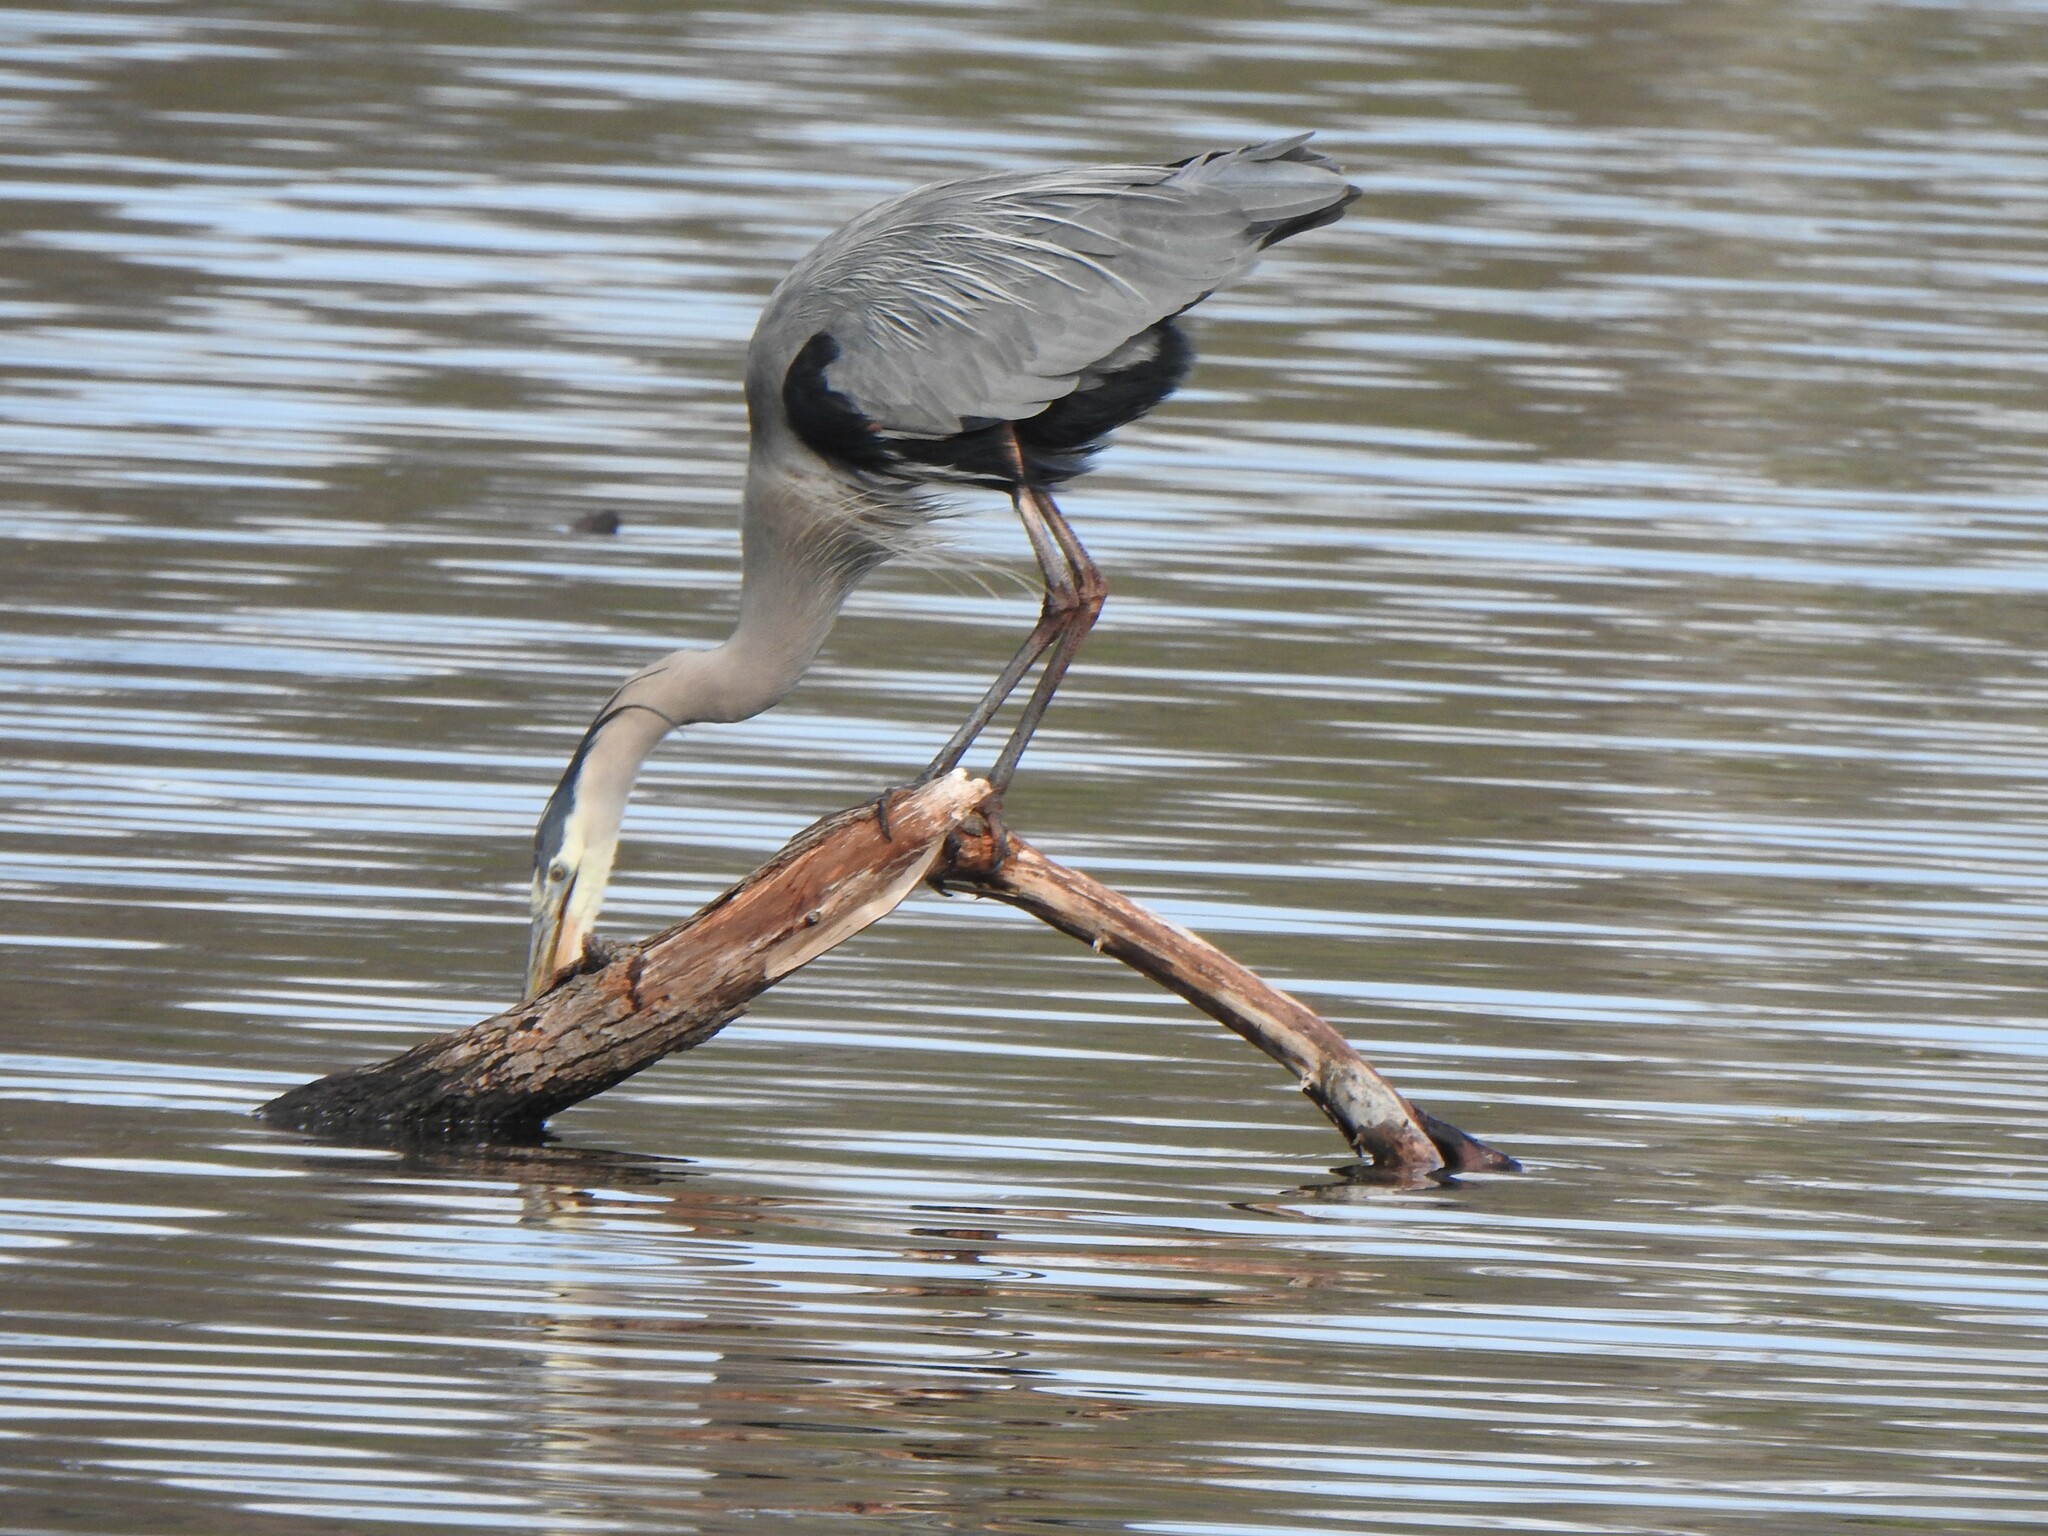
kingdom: Animalia
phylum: Chordata
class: Aves
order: Pelecaniformes
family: Ardeidae
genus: Ardea
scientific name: Ardea herodias
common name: Great blue heron
